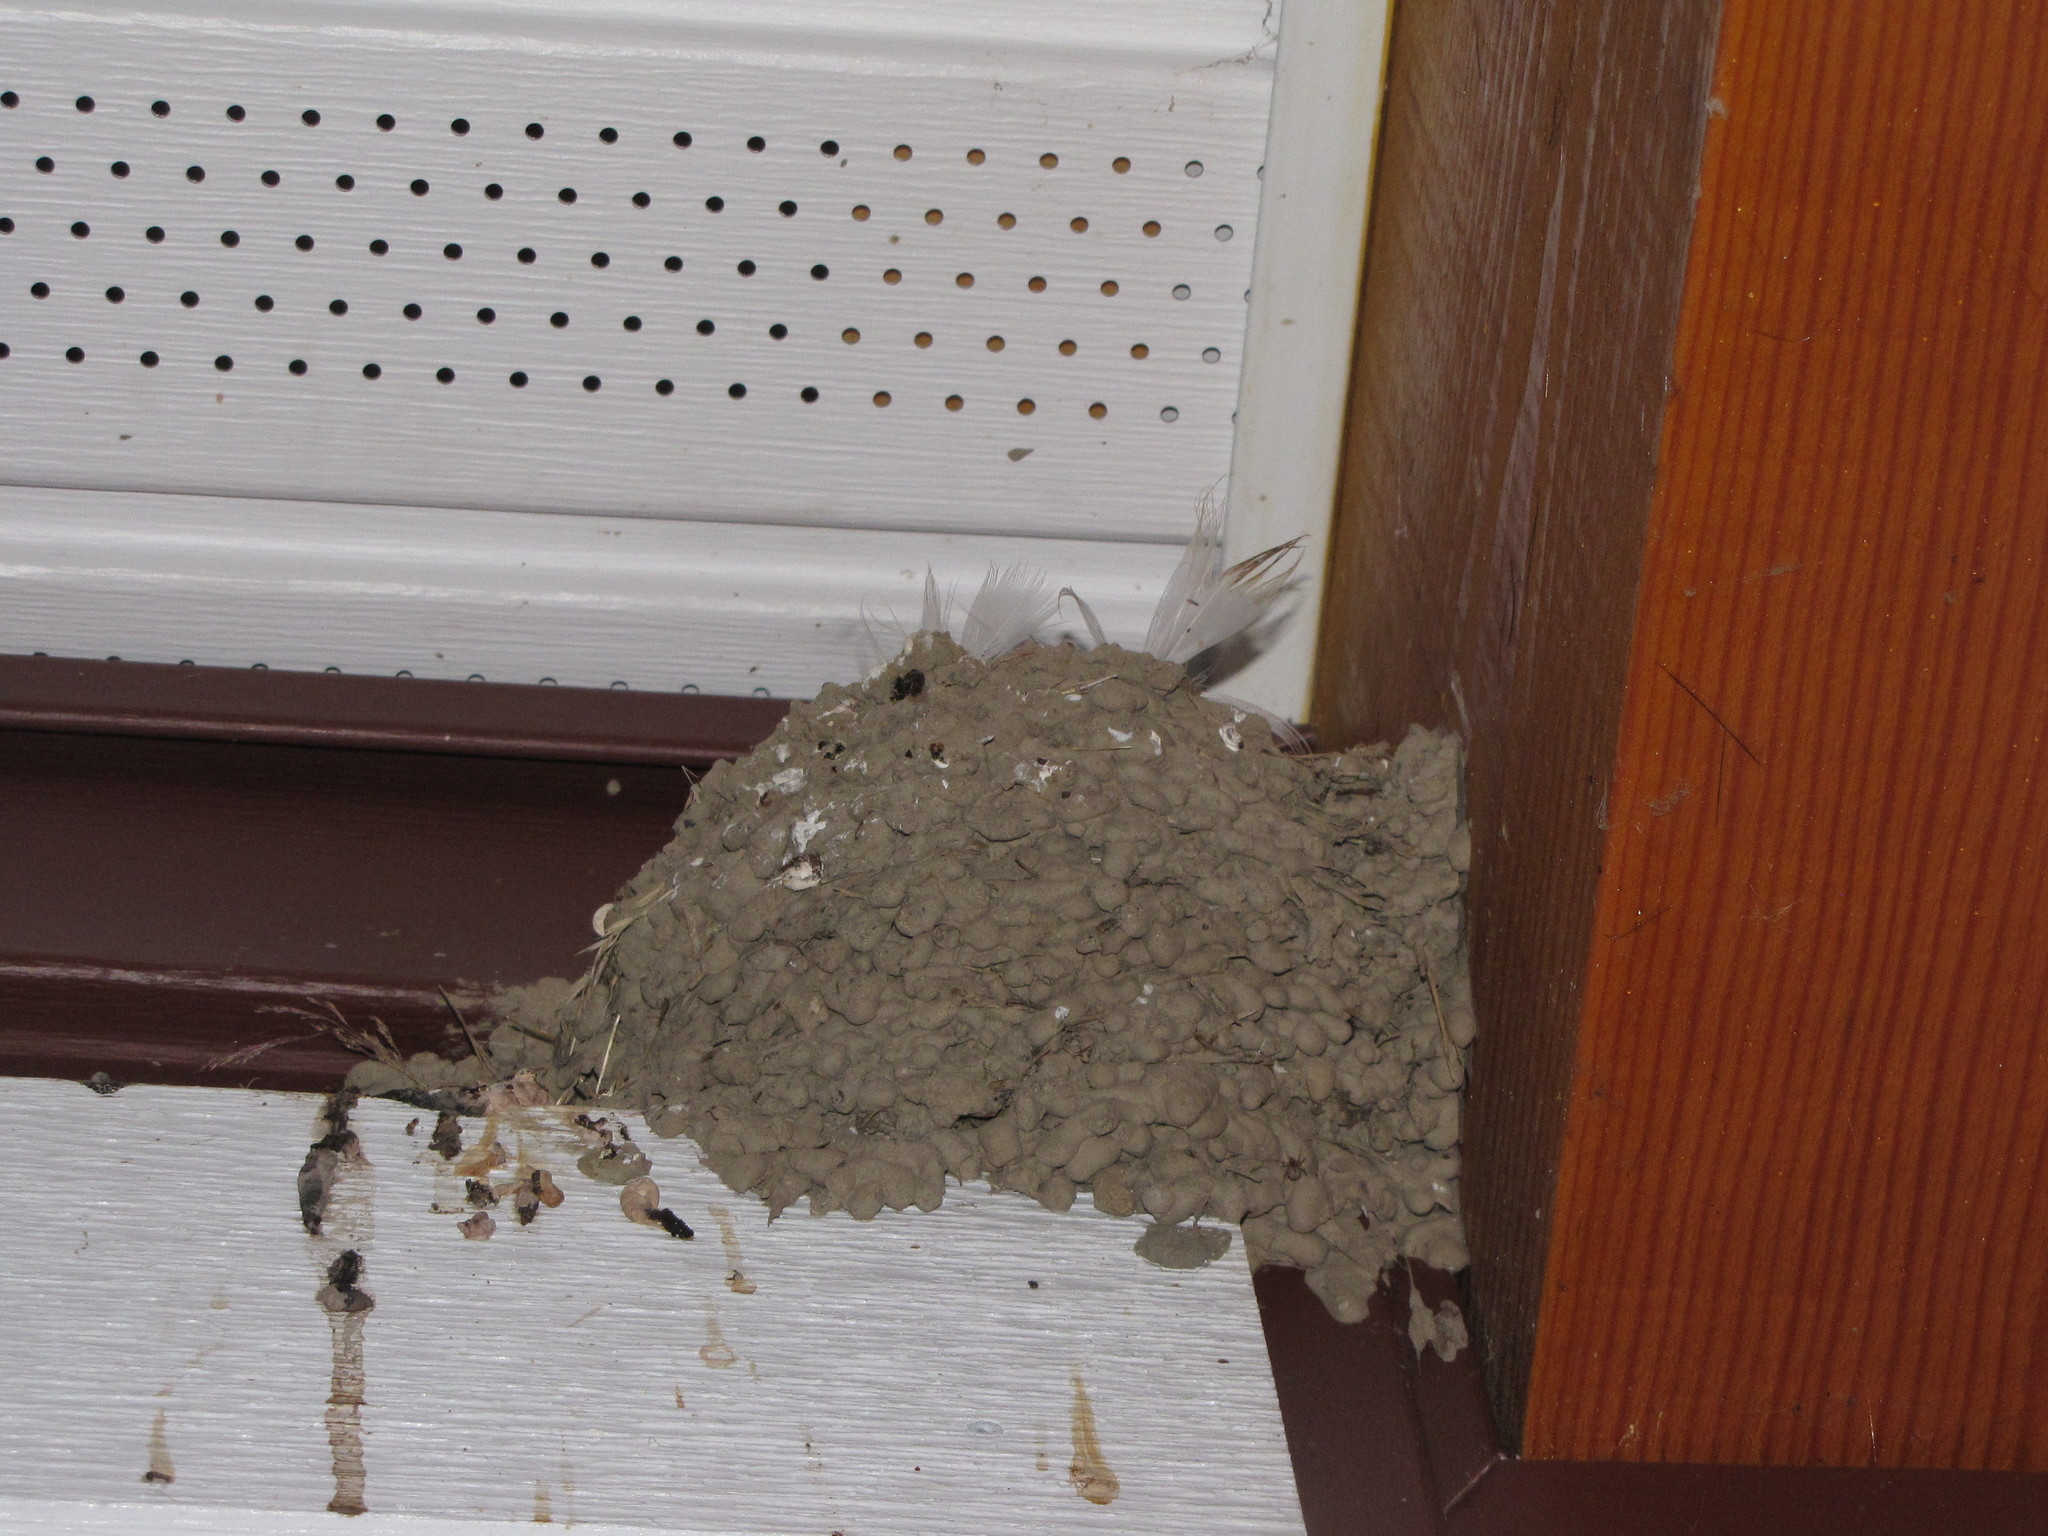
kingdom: Animalia
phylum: Chordata
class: Aves
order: Passeriformes
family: Hirundinidae
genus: Hirundo
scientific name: Hirundo rustica
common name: Barn swallow
